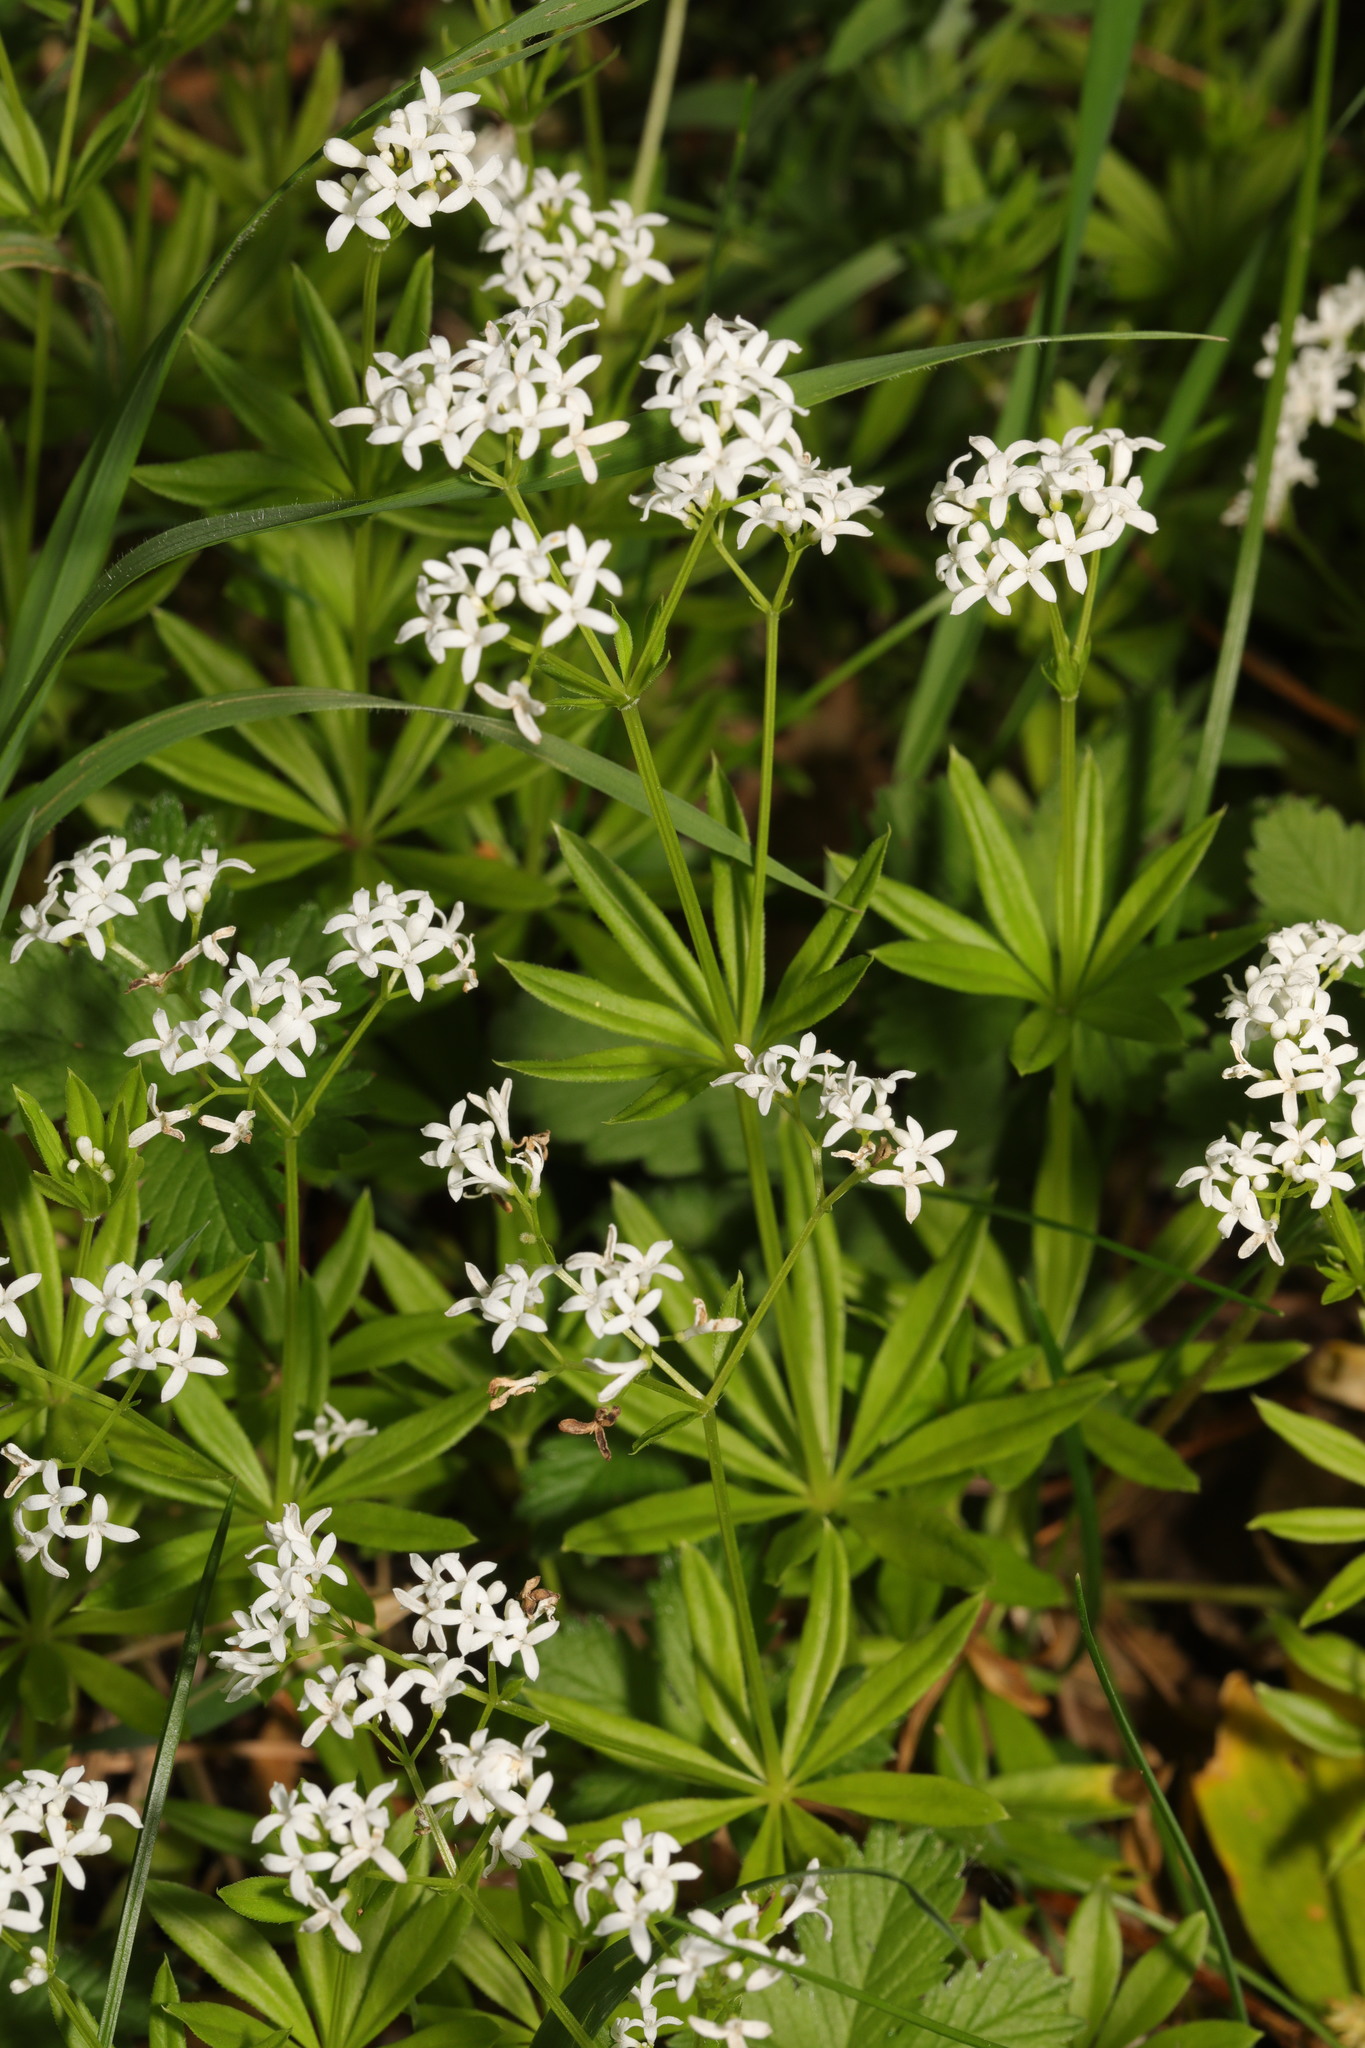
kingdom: Plantae
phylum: Tracheophyta
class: Magnoliopsida
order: Gentianales
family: Rubiaceae
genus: Galium
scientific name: Galium odoratum
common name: Sweet woodruff
